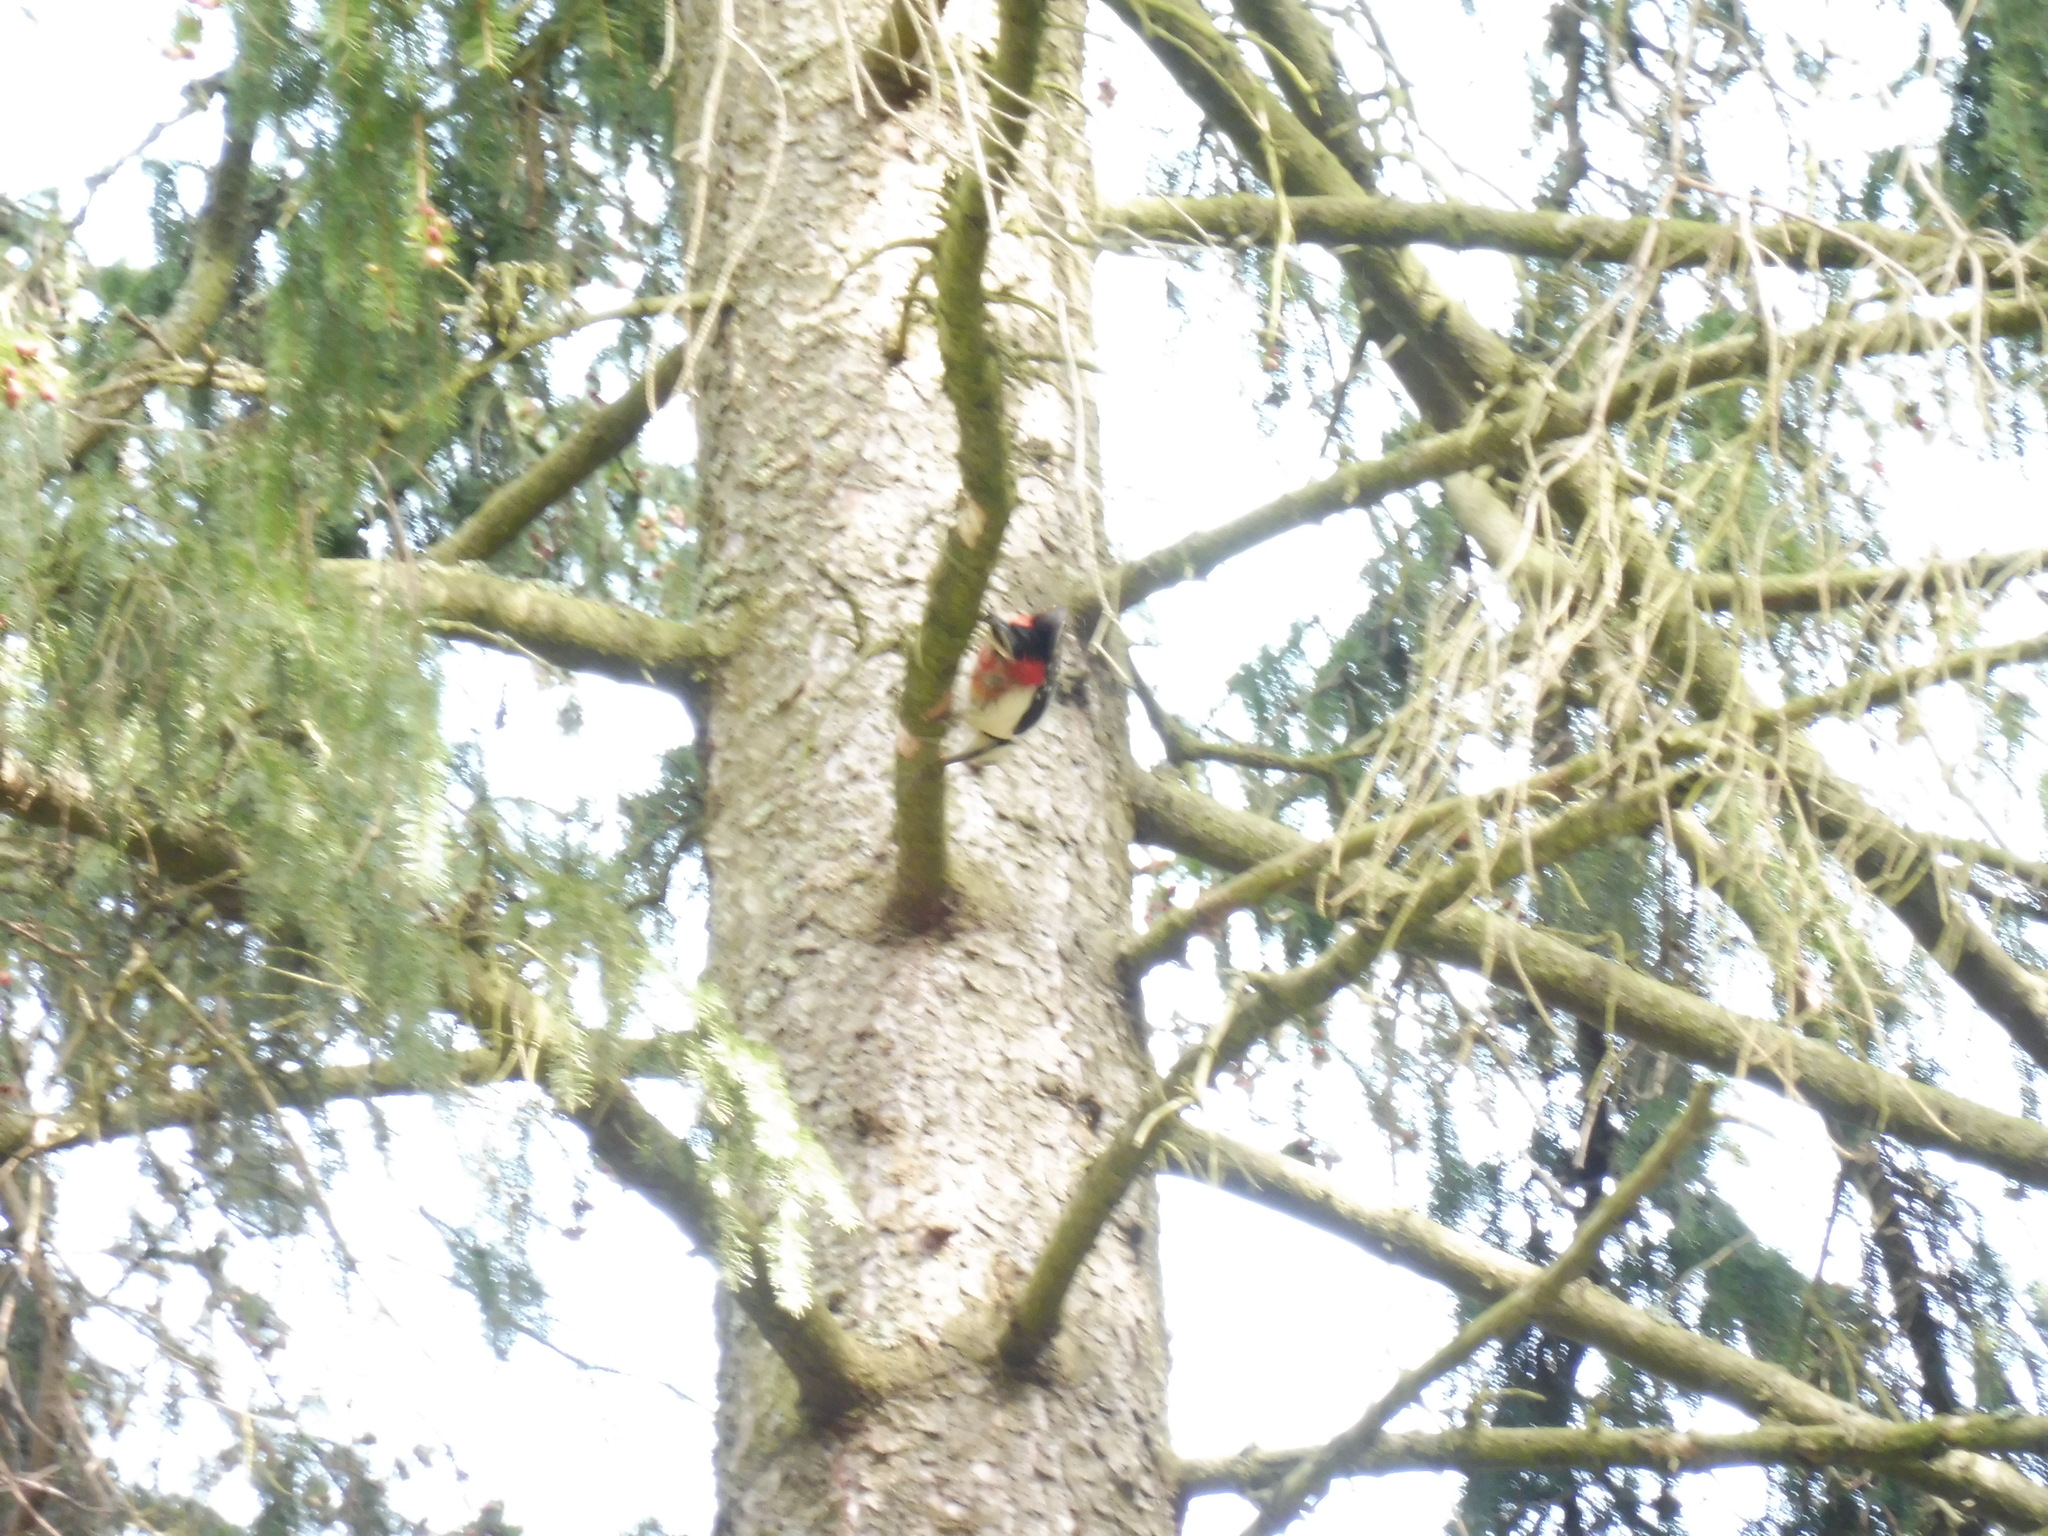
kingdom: Animalia
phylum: Chordata
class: Aves
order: Piciformes
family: Picidae
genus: Dendrocopos
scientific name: Dendrocopos major
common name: Great spotted woodpecker
